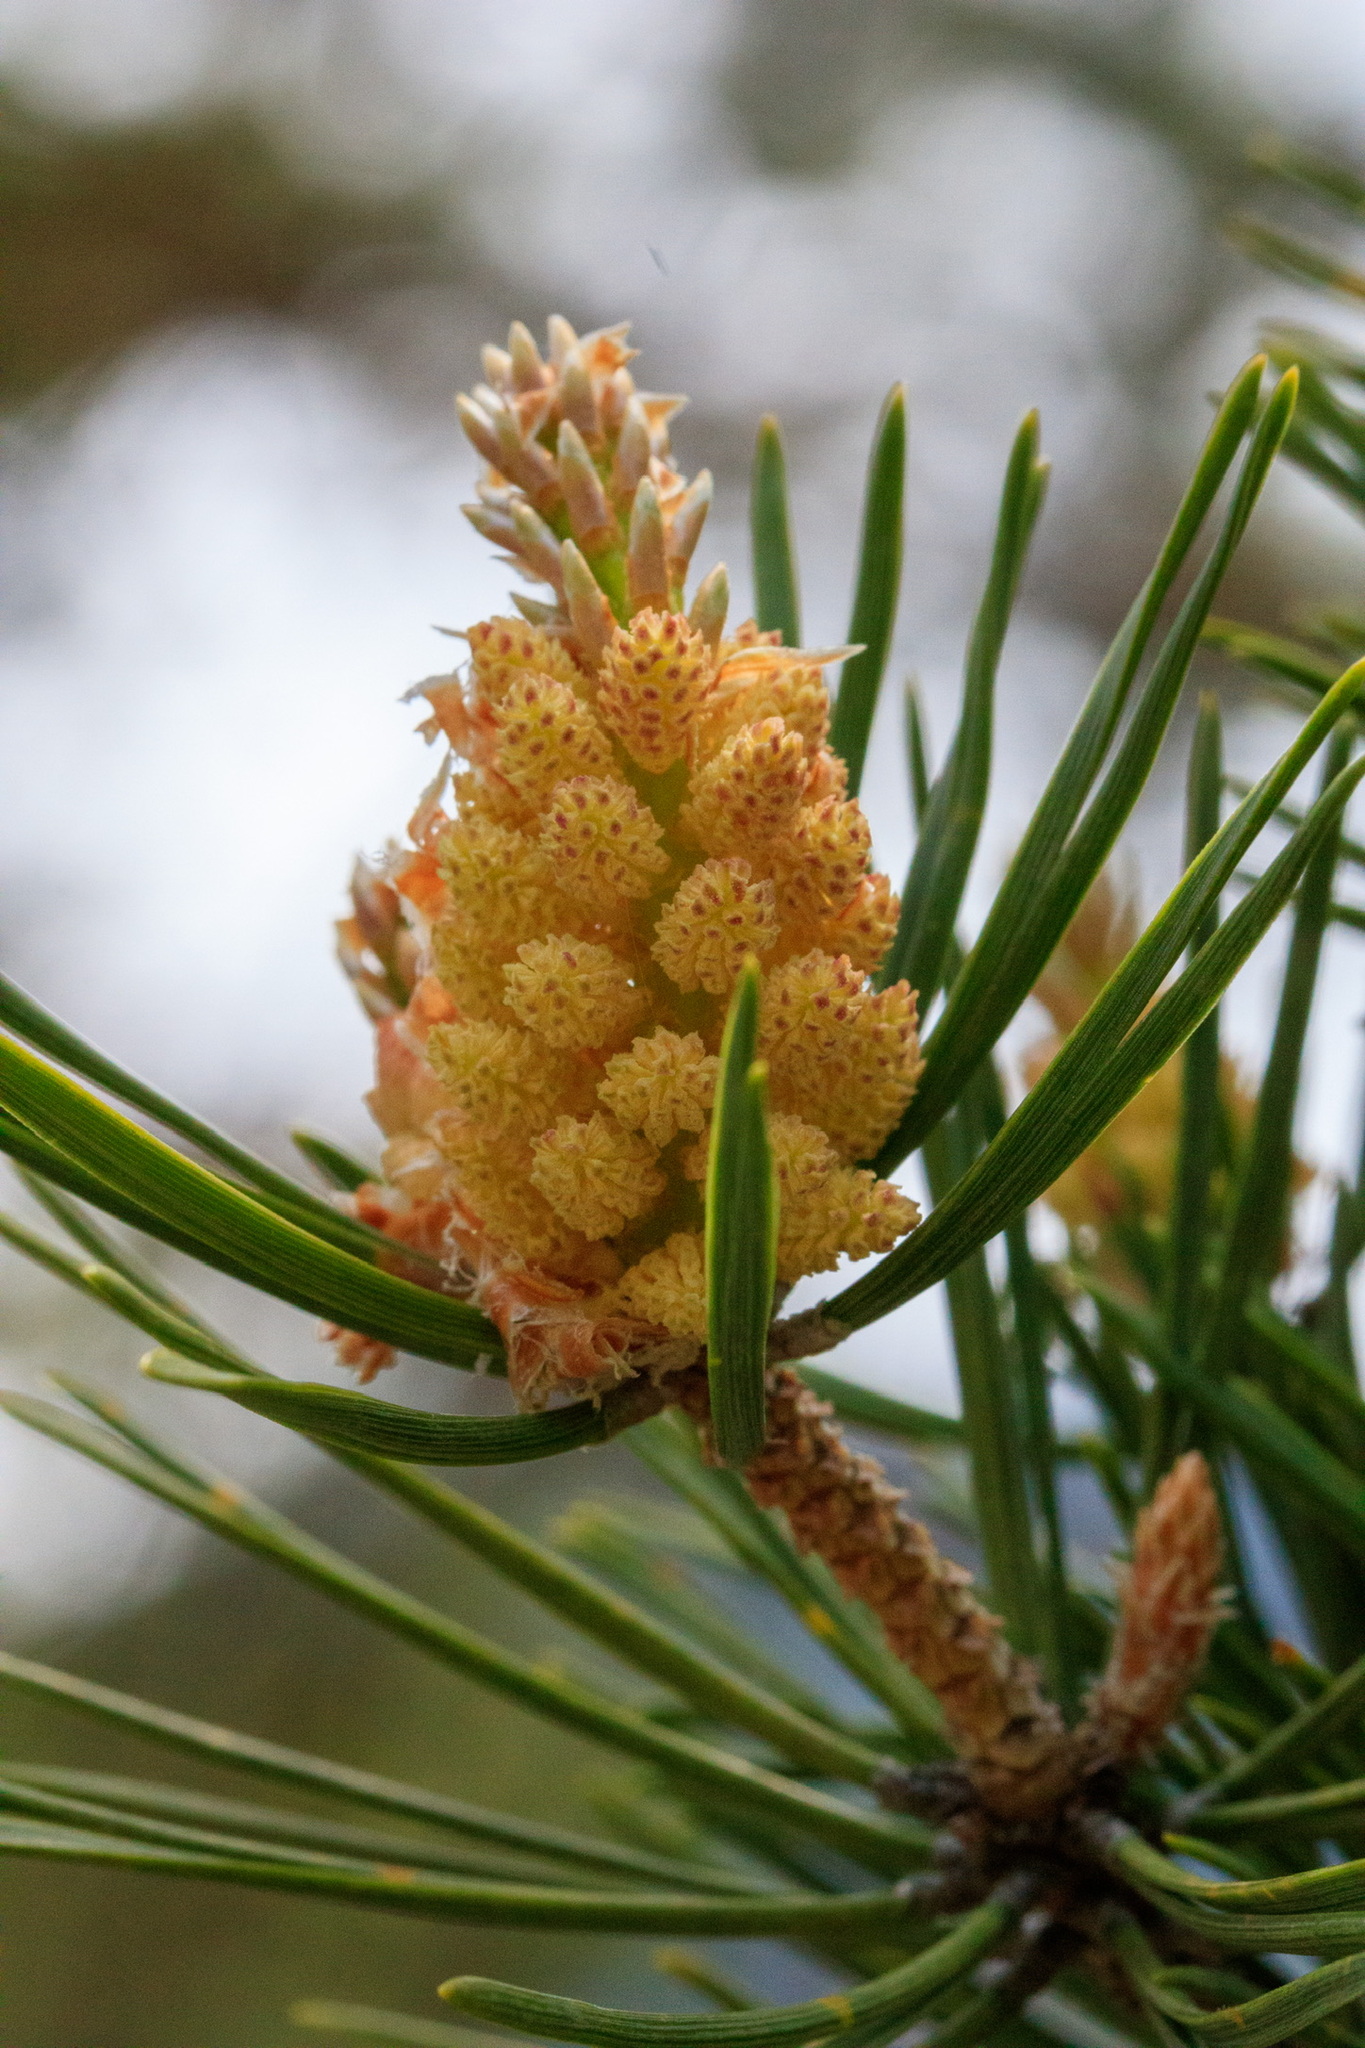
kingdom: Plantae
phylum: Tracheophyta
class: Pinopsida
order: Pinales
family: Pinaceae
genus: Pinus
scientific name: Pinus sylvestris
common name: Scots pine
